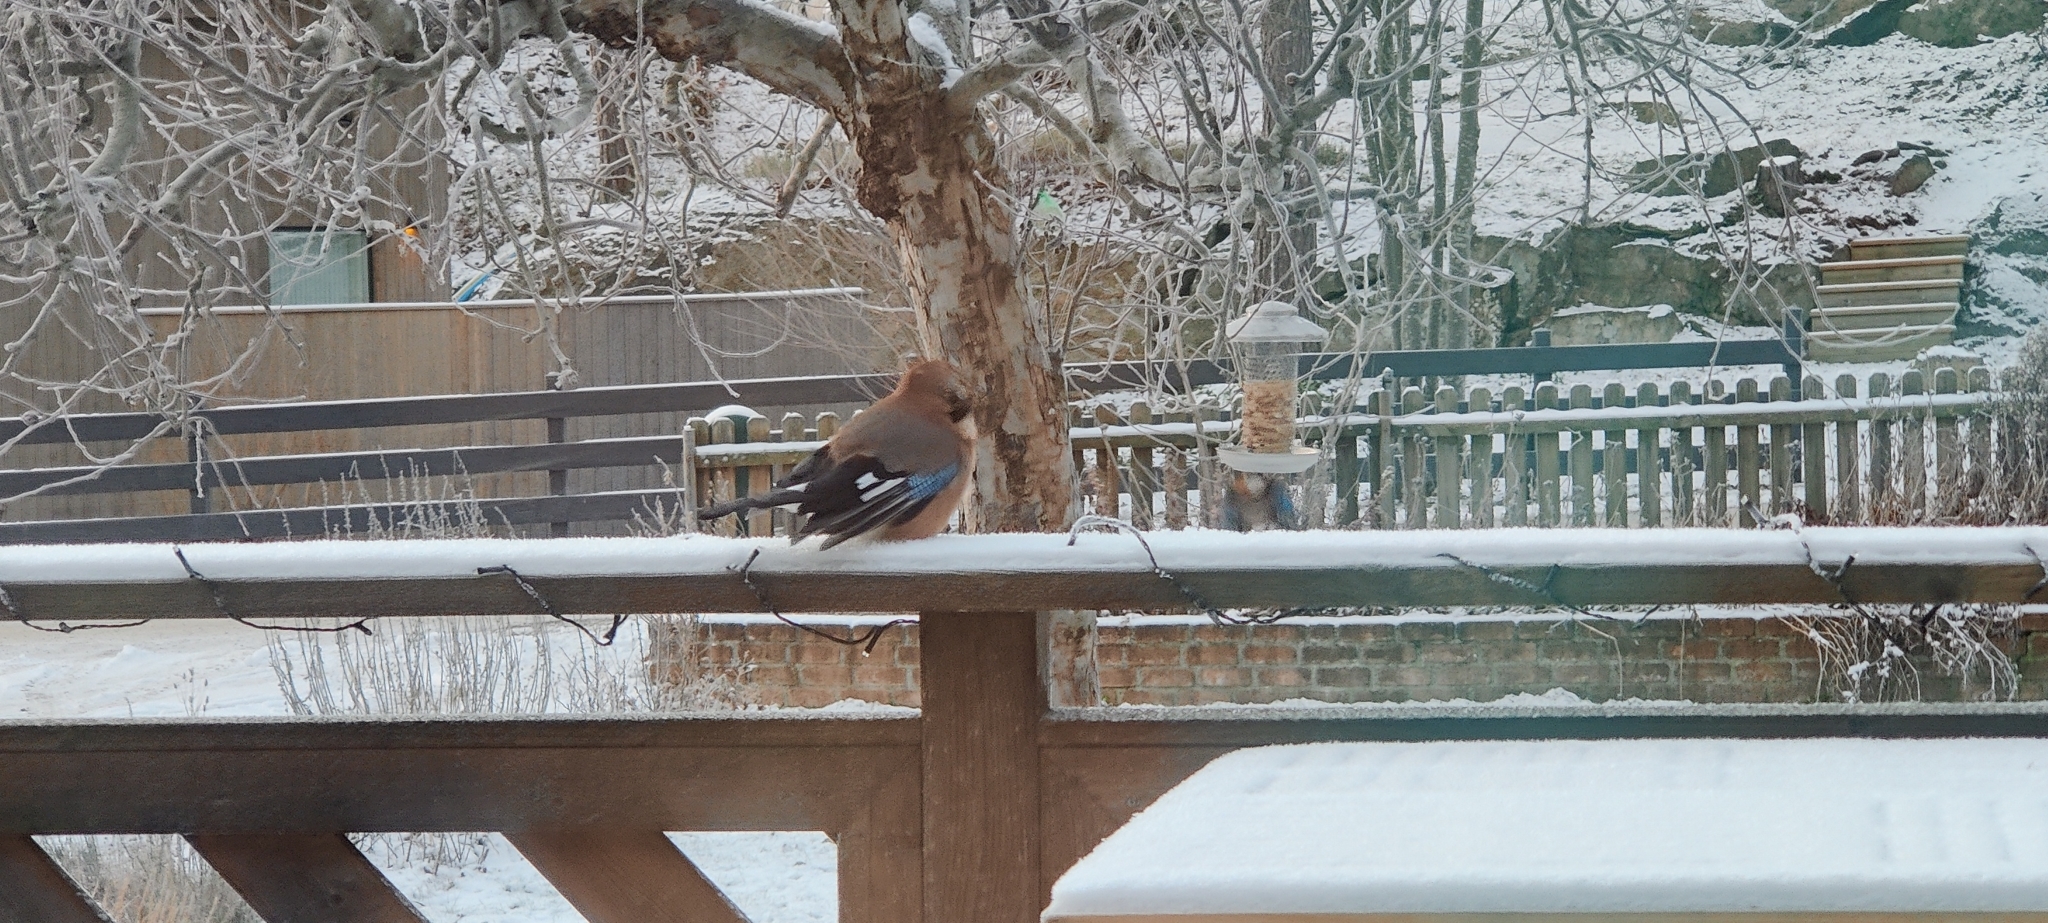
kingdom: Animalia
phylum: Chordata
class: Aves
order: Passeriformes
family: Corvidae
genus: Garrulus
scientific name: Garrulus glandarius
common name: Eurasian jay
